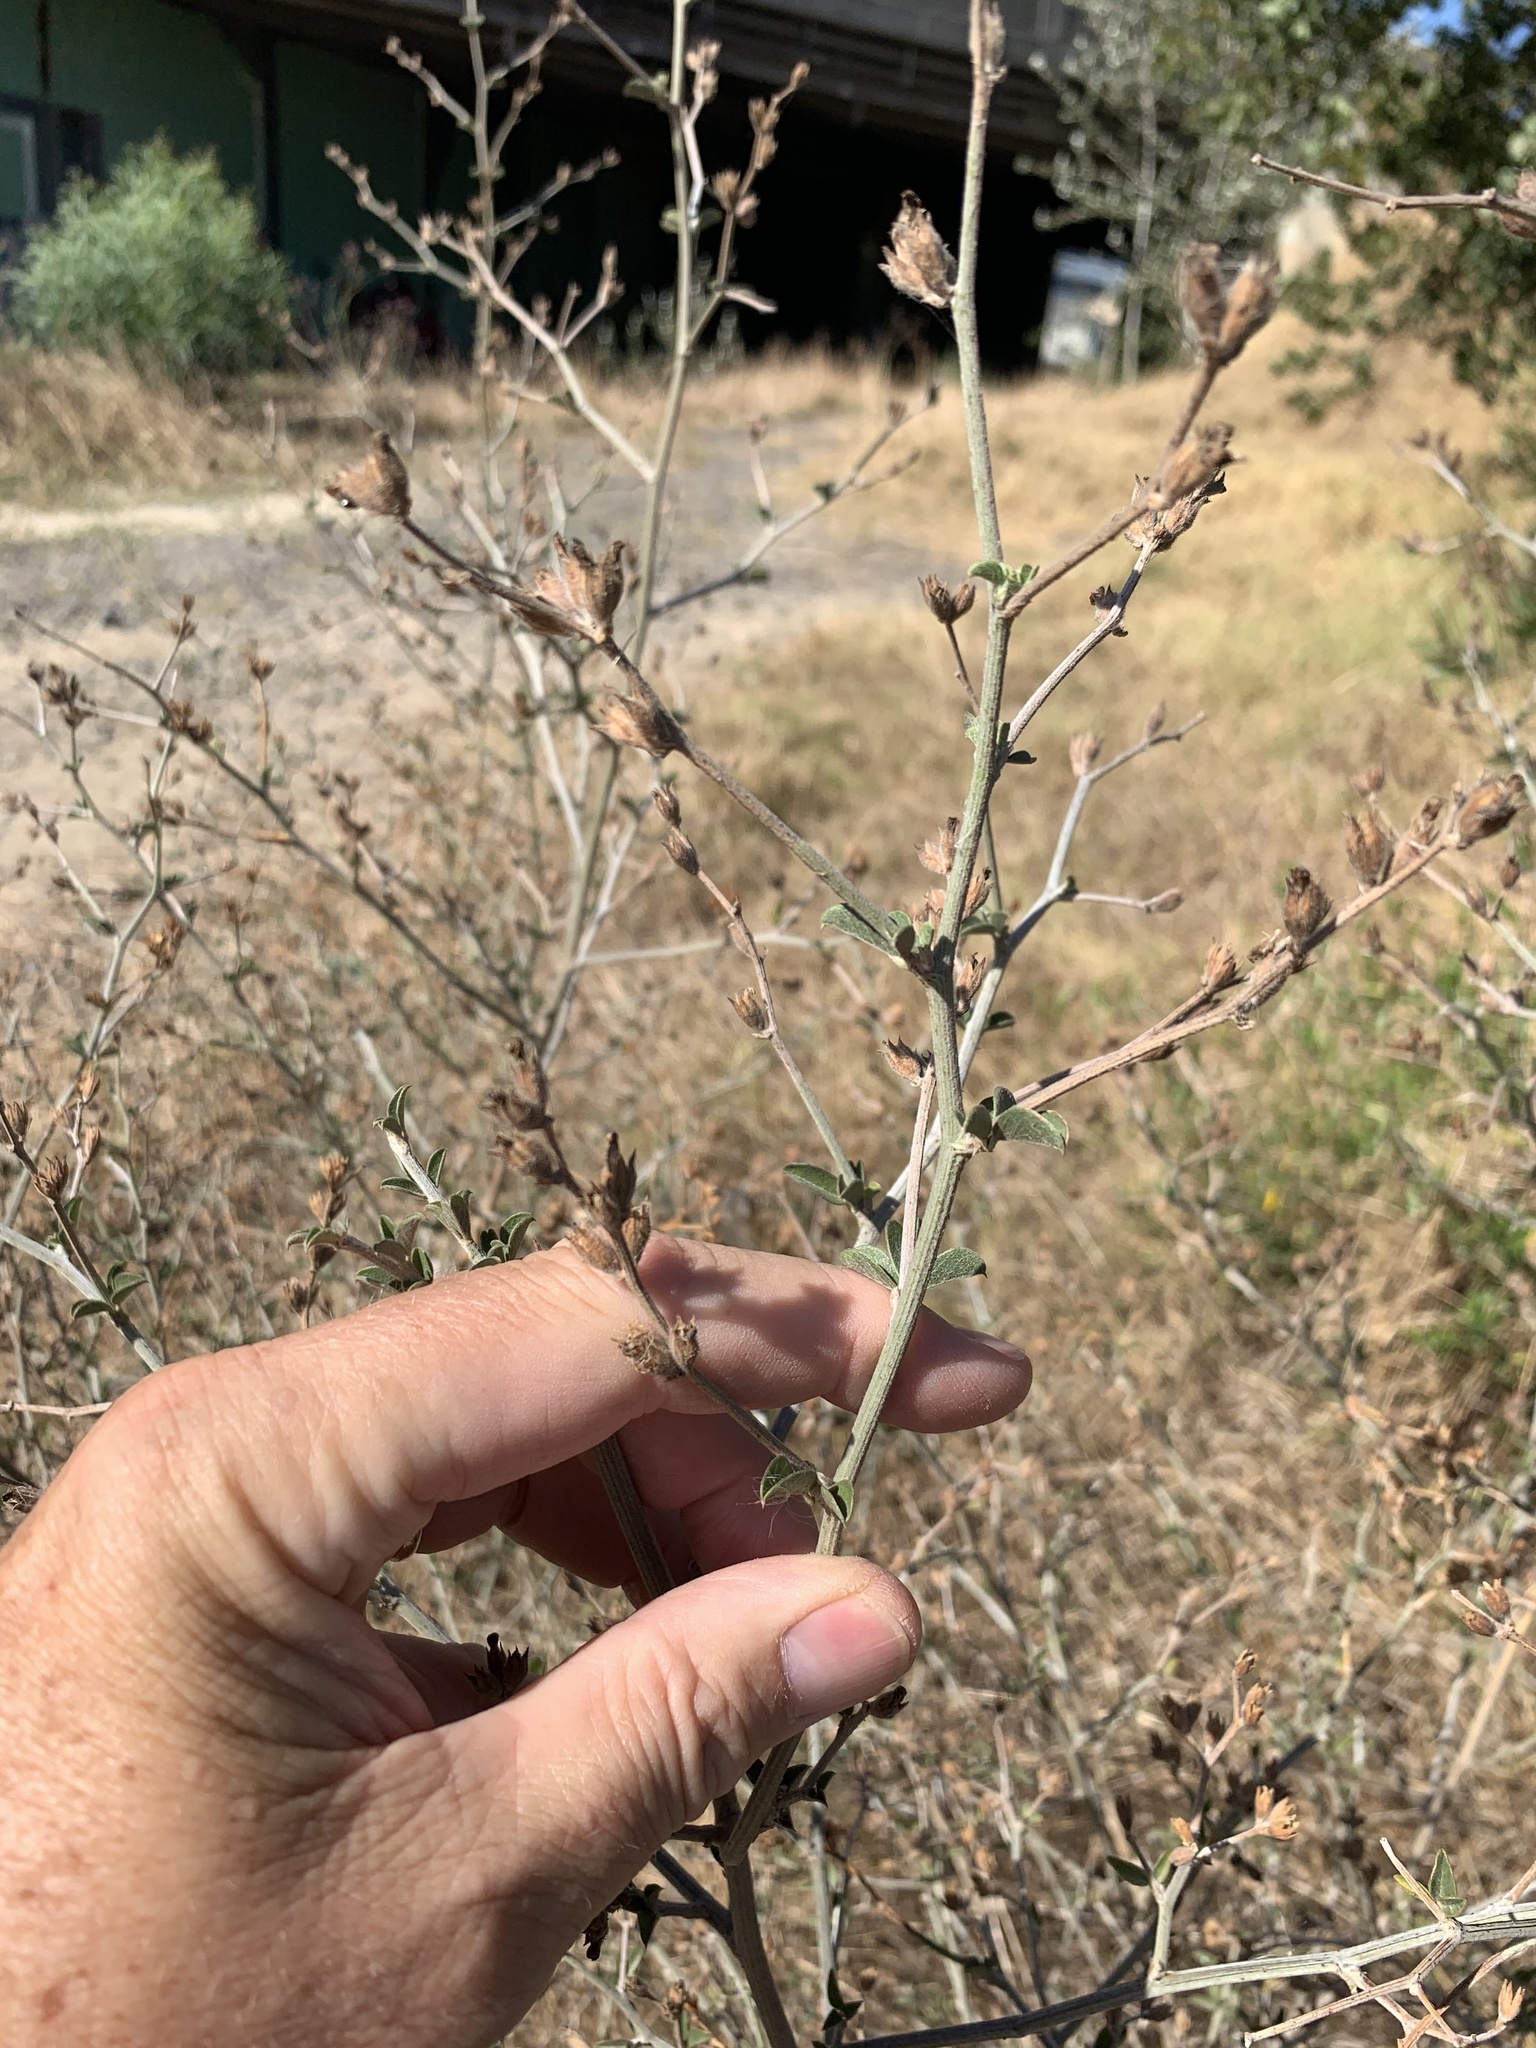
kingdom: Plantae
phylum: Tracheophyta
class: Magnoliopsida
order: Fabales
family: Fabaceae
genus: Psoralea
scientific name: Psoralea hirta
